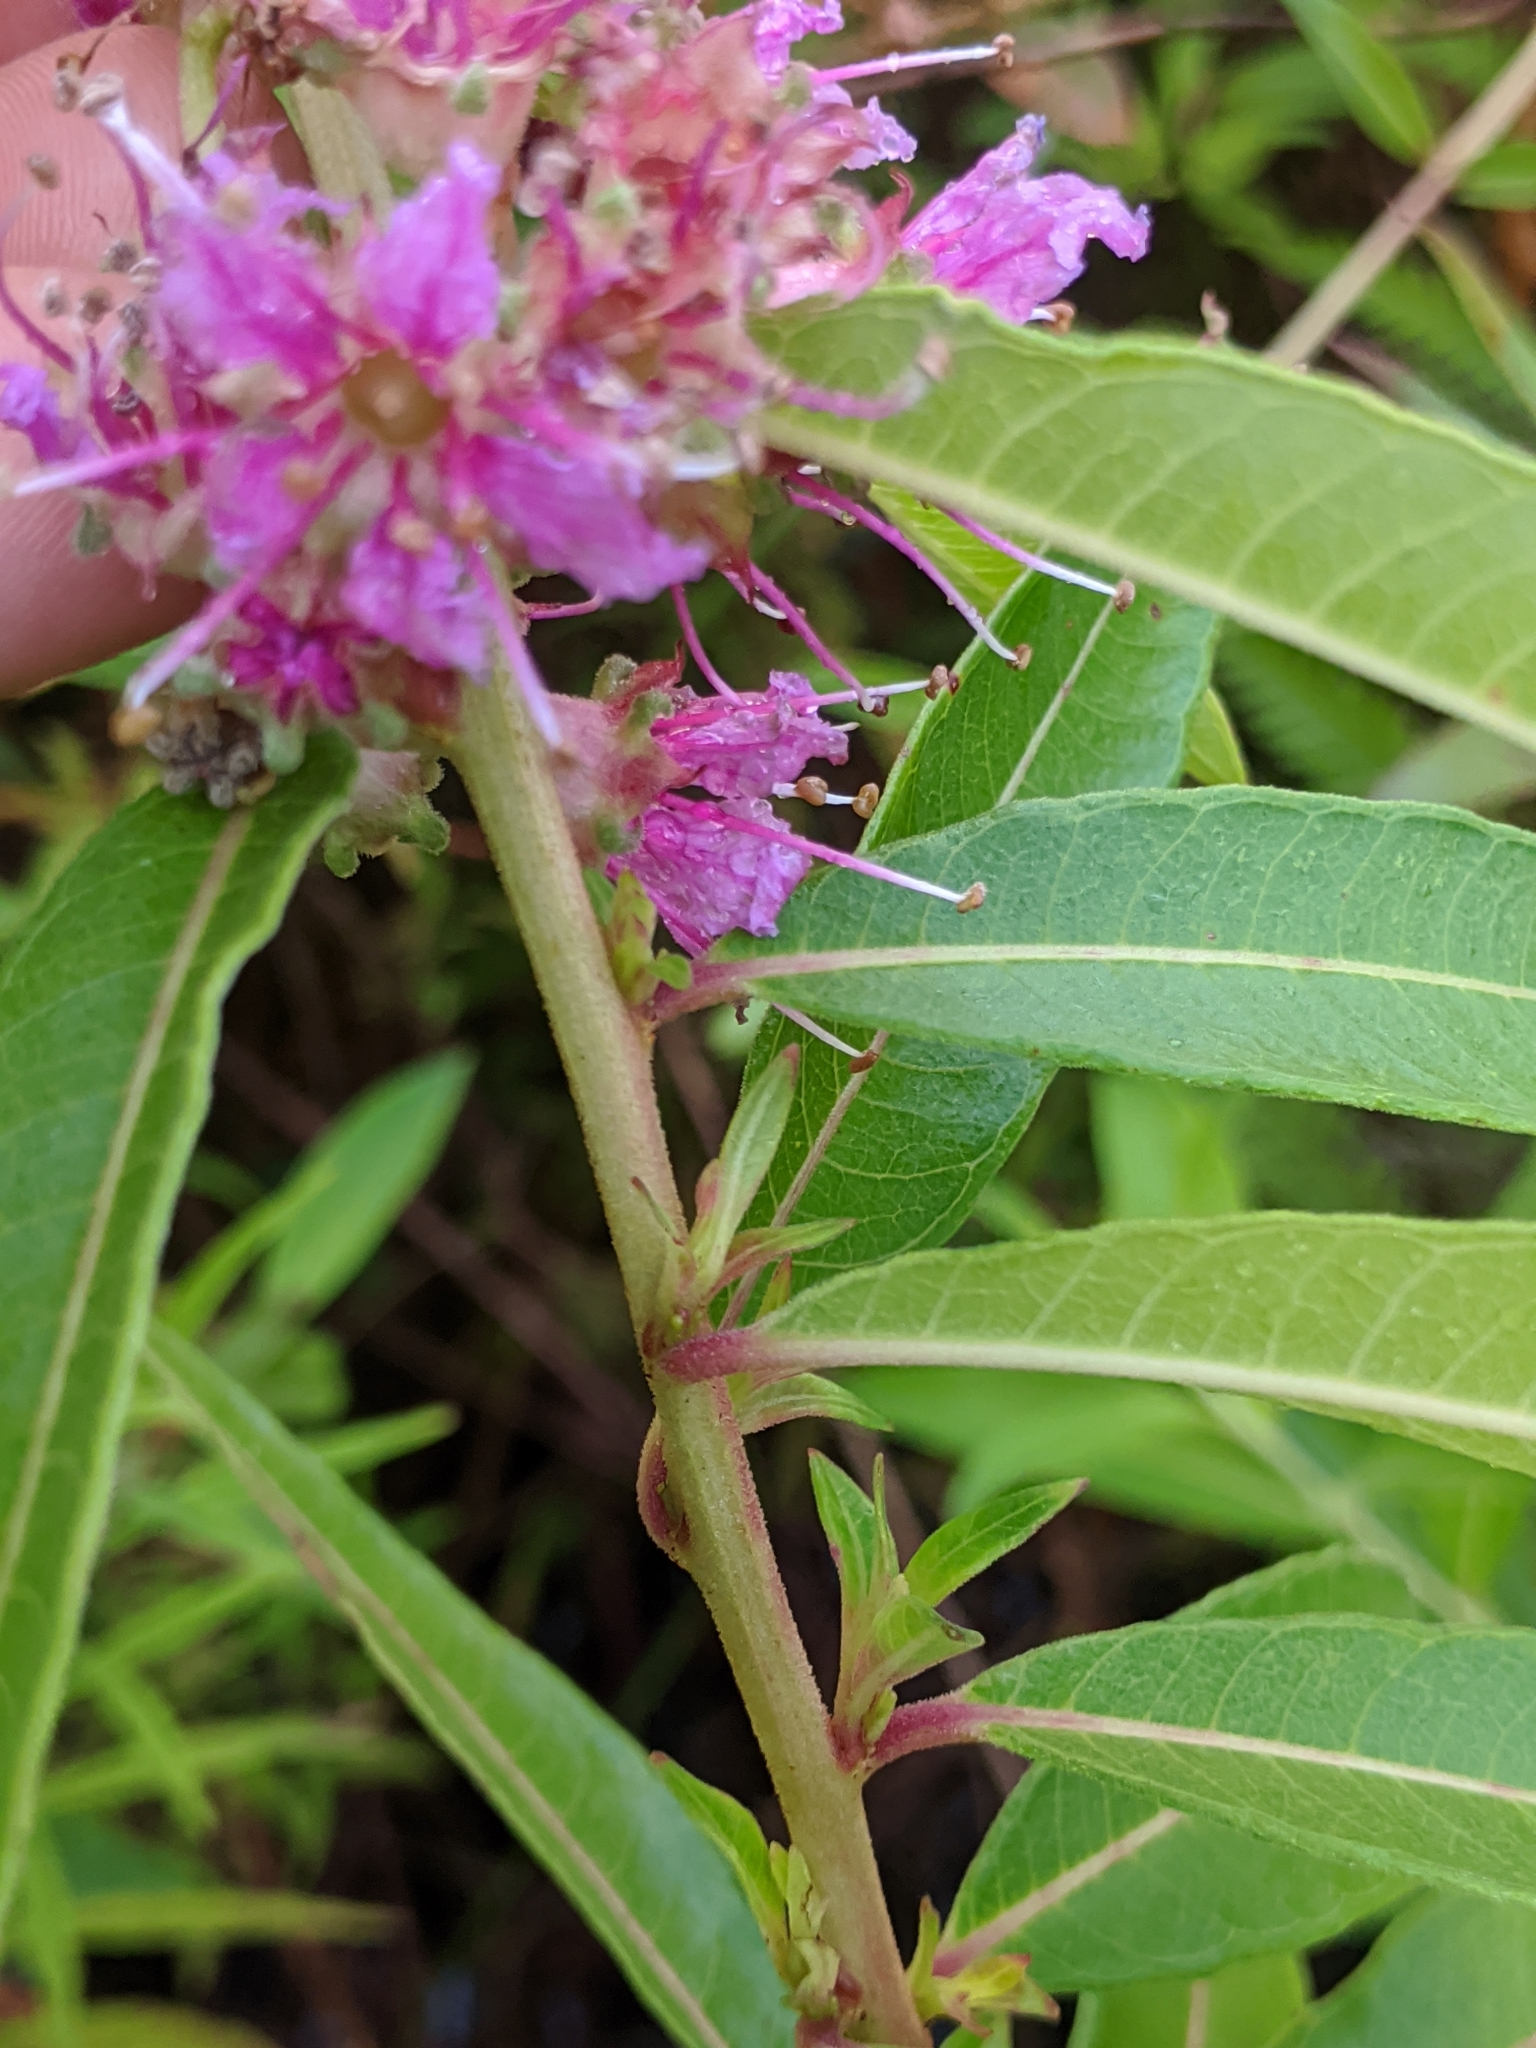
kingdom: Plantae
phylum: Tracheophyta
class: Magnoliopsida
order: Myrtales
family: Lythraceae
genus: Decodon
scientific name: Decodon verticillatus
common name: Hairy swamp loosestrife
